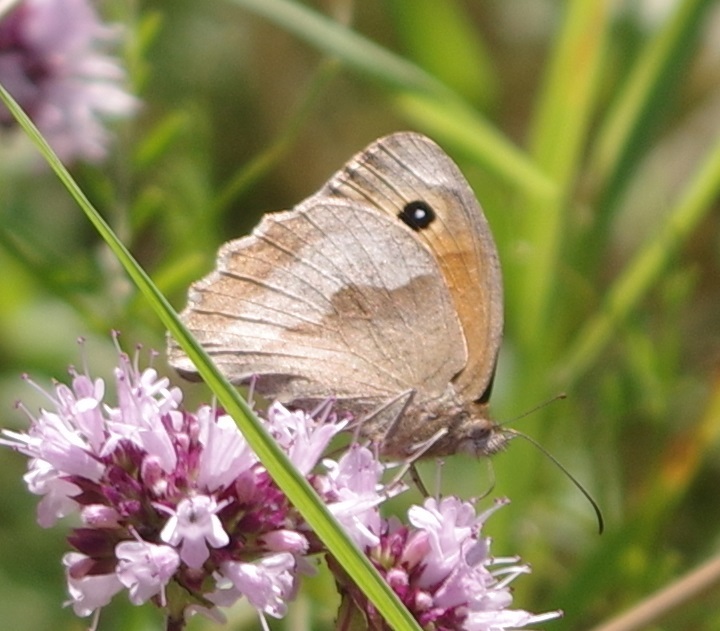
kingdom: Animalia
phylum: Arthropoda
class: Insecta
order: Lepidoptera
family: Nymphalidae
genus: Maniola
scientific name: Maniola jurtina
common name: Meadow brown
